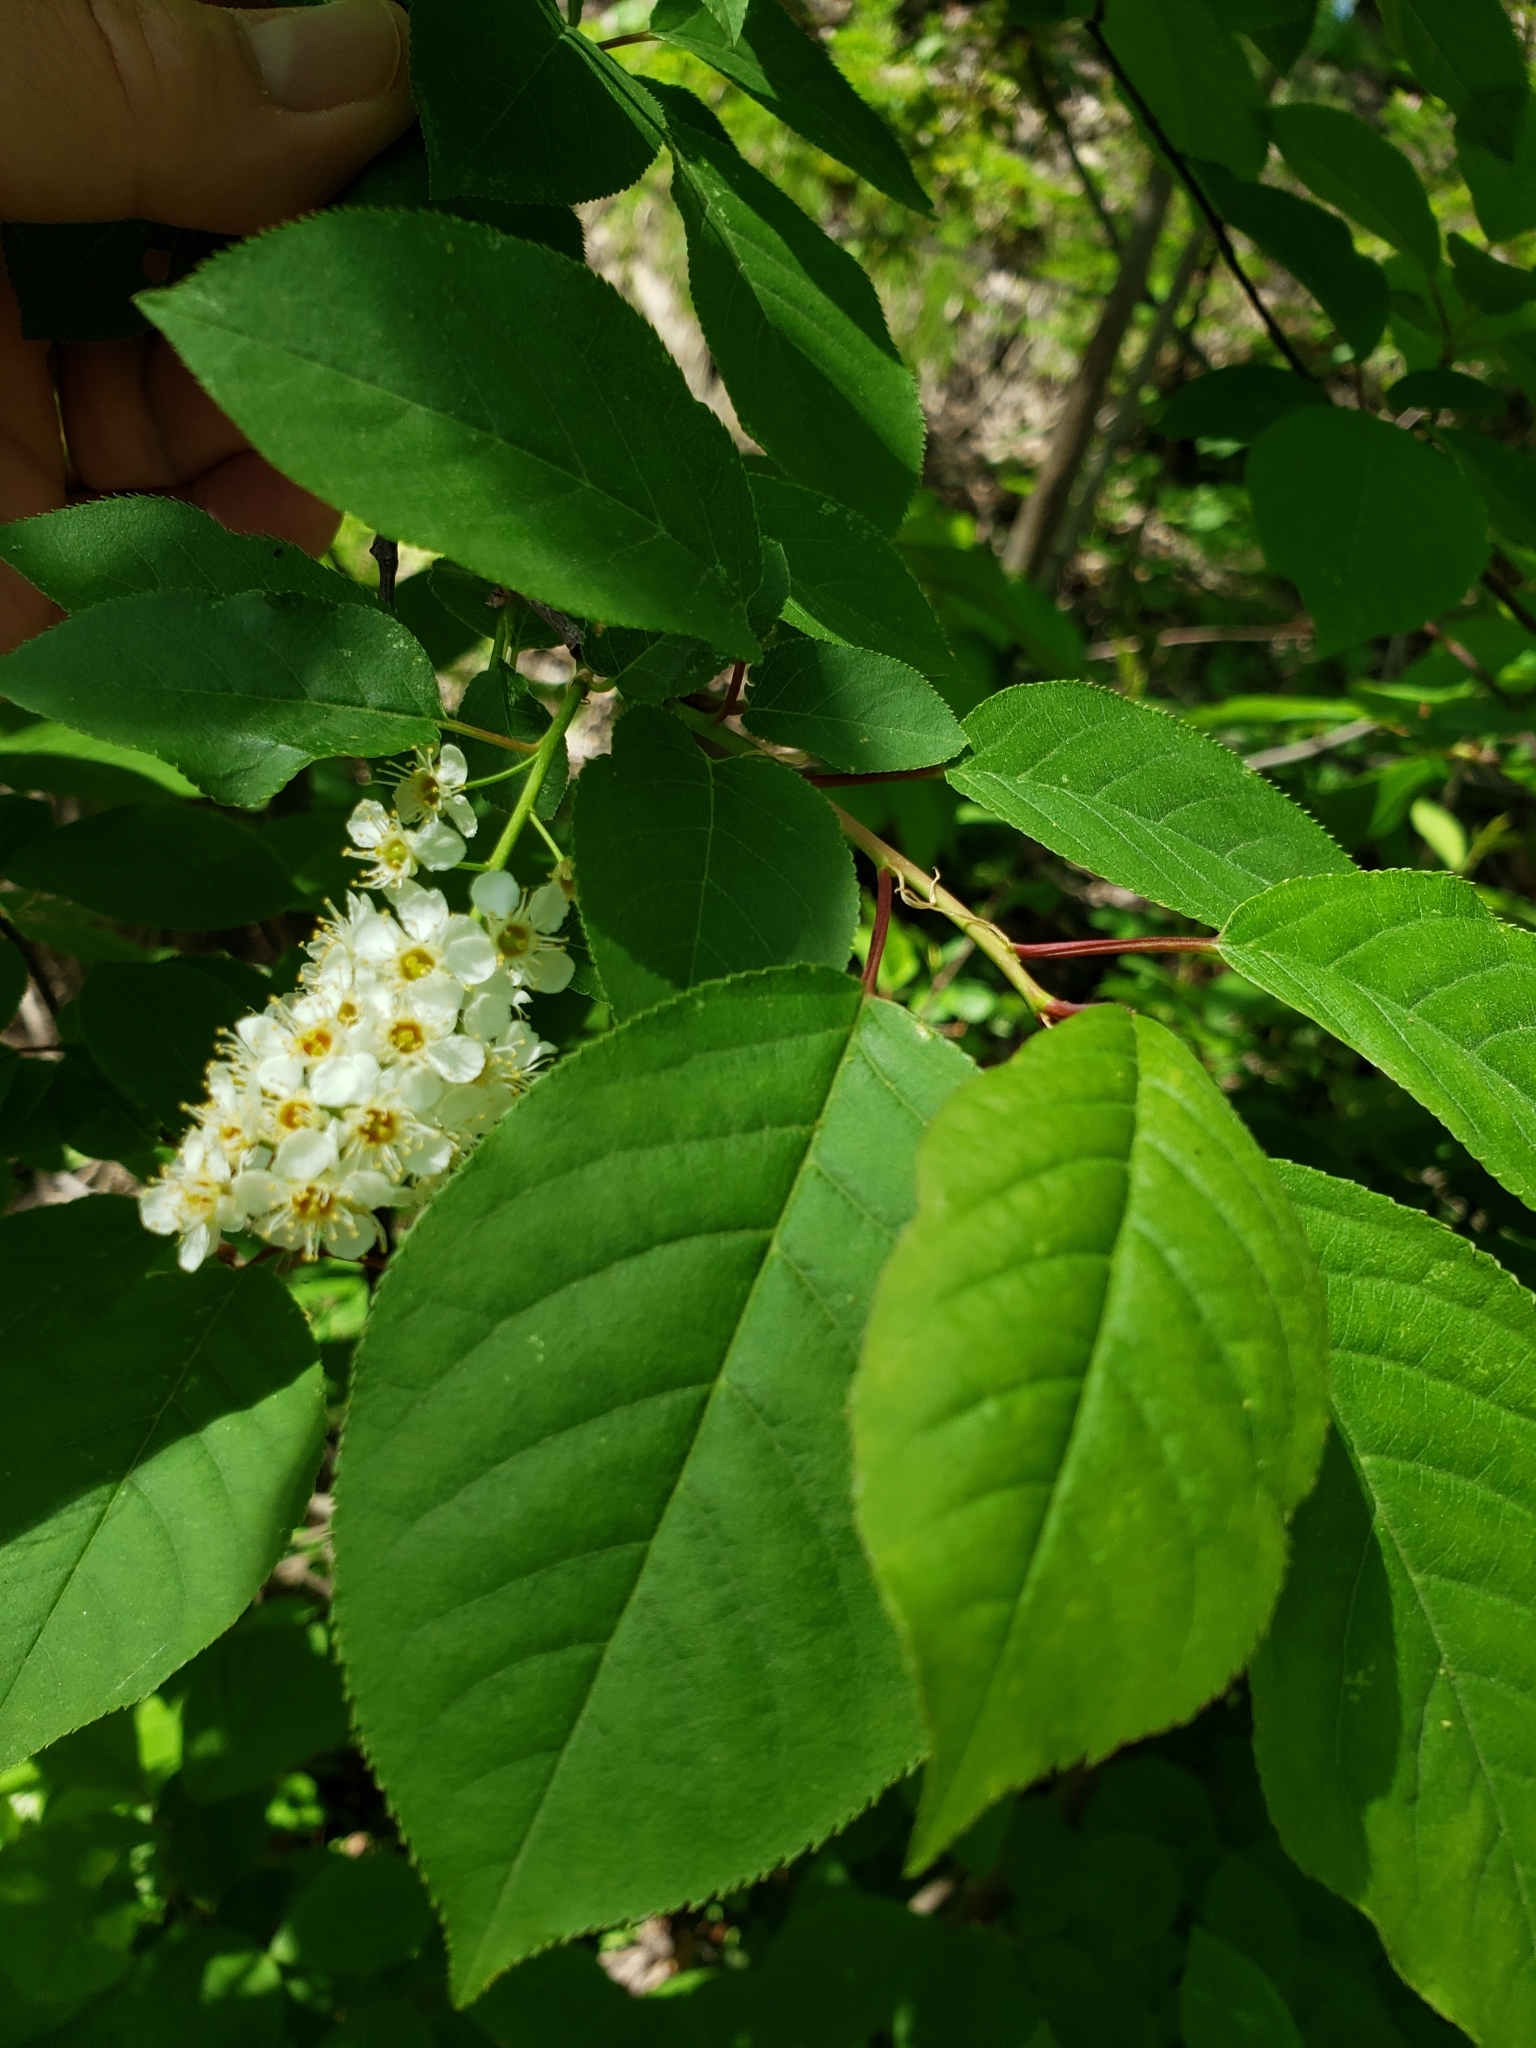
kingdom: Plantae
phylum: Tracheophyta
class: Magnoliopsida
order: Rosales
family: Rosaceae
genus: Prunus
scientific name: Prunus virginiana
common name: Chokecherry
